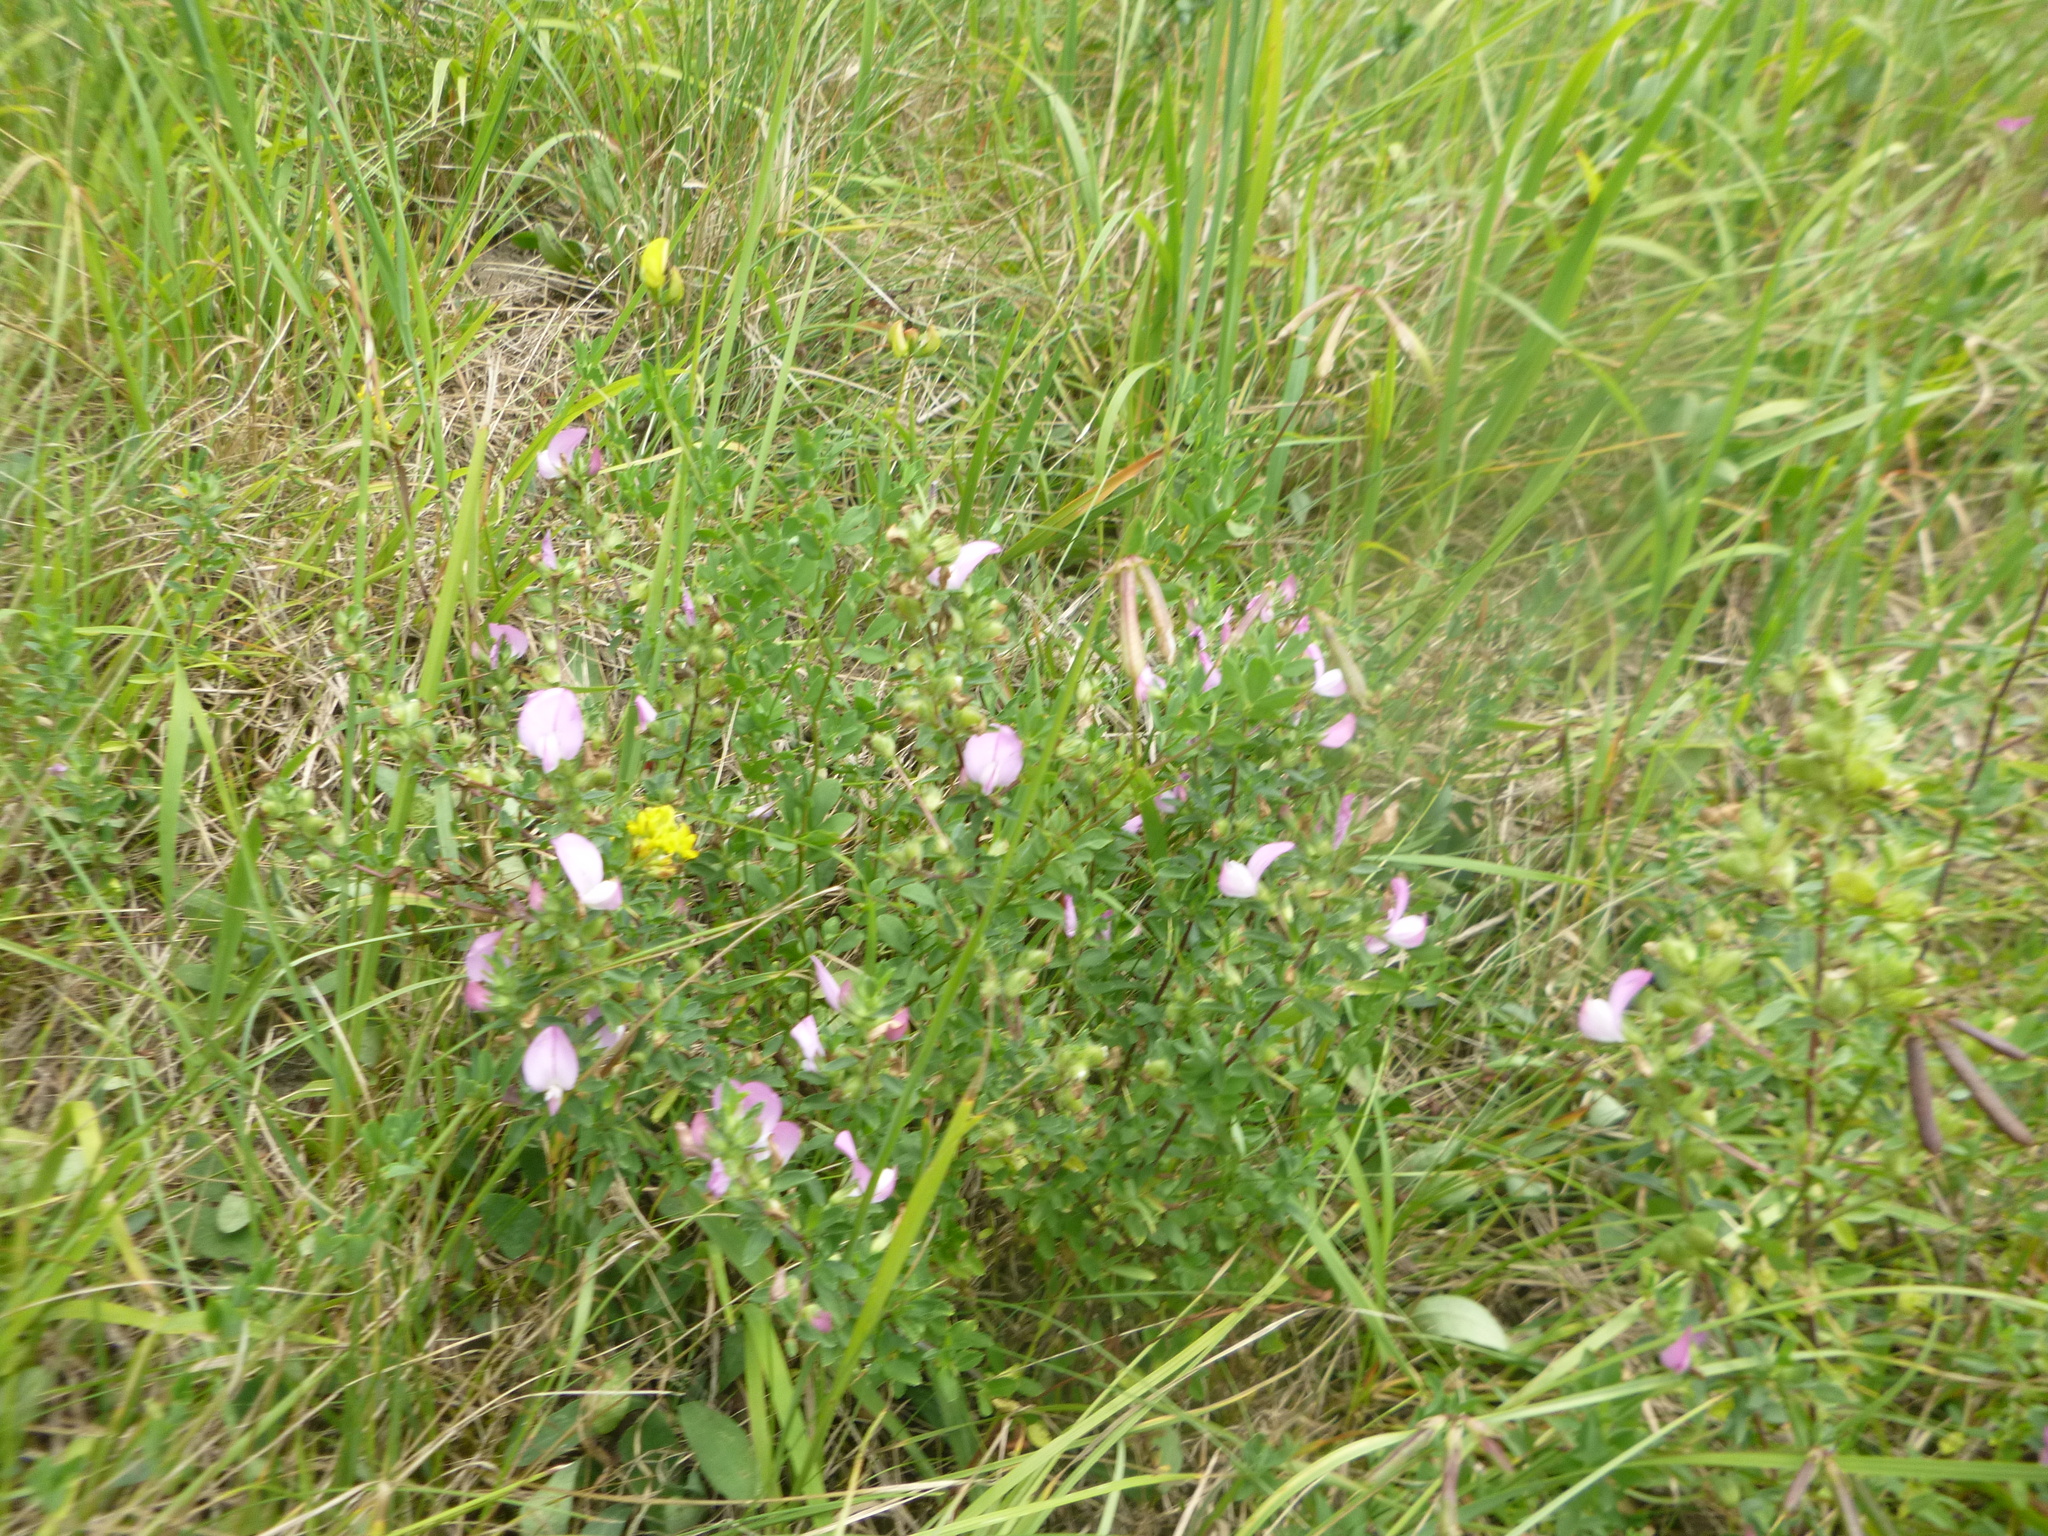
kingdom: Plantae
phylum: Tracheophyta
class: Magnoliopsida
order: Fabales
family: Fabaceae
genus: Ononis
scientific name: Ononis spinosa
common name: Spiny restharrow
